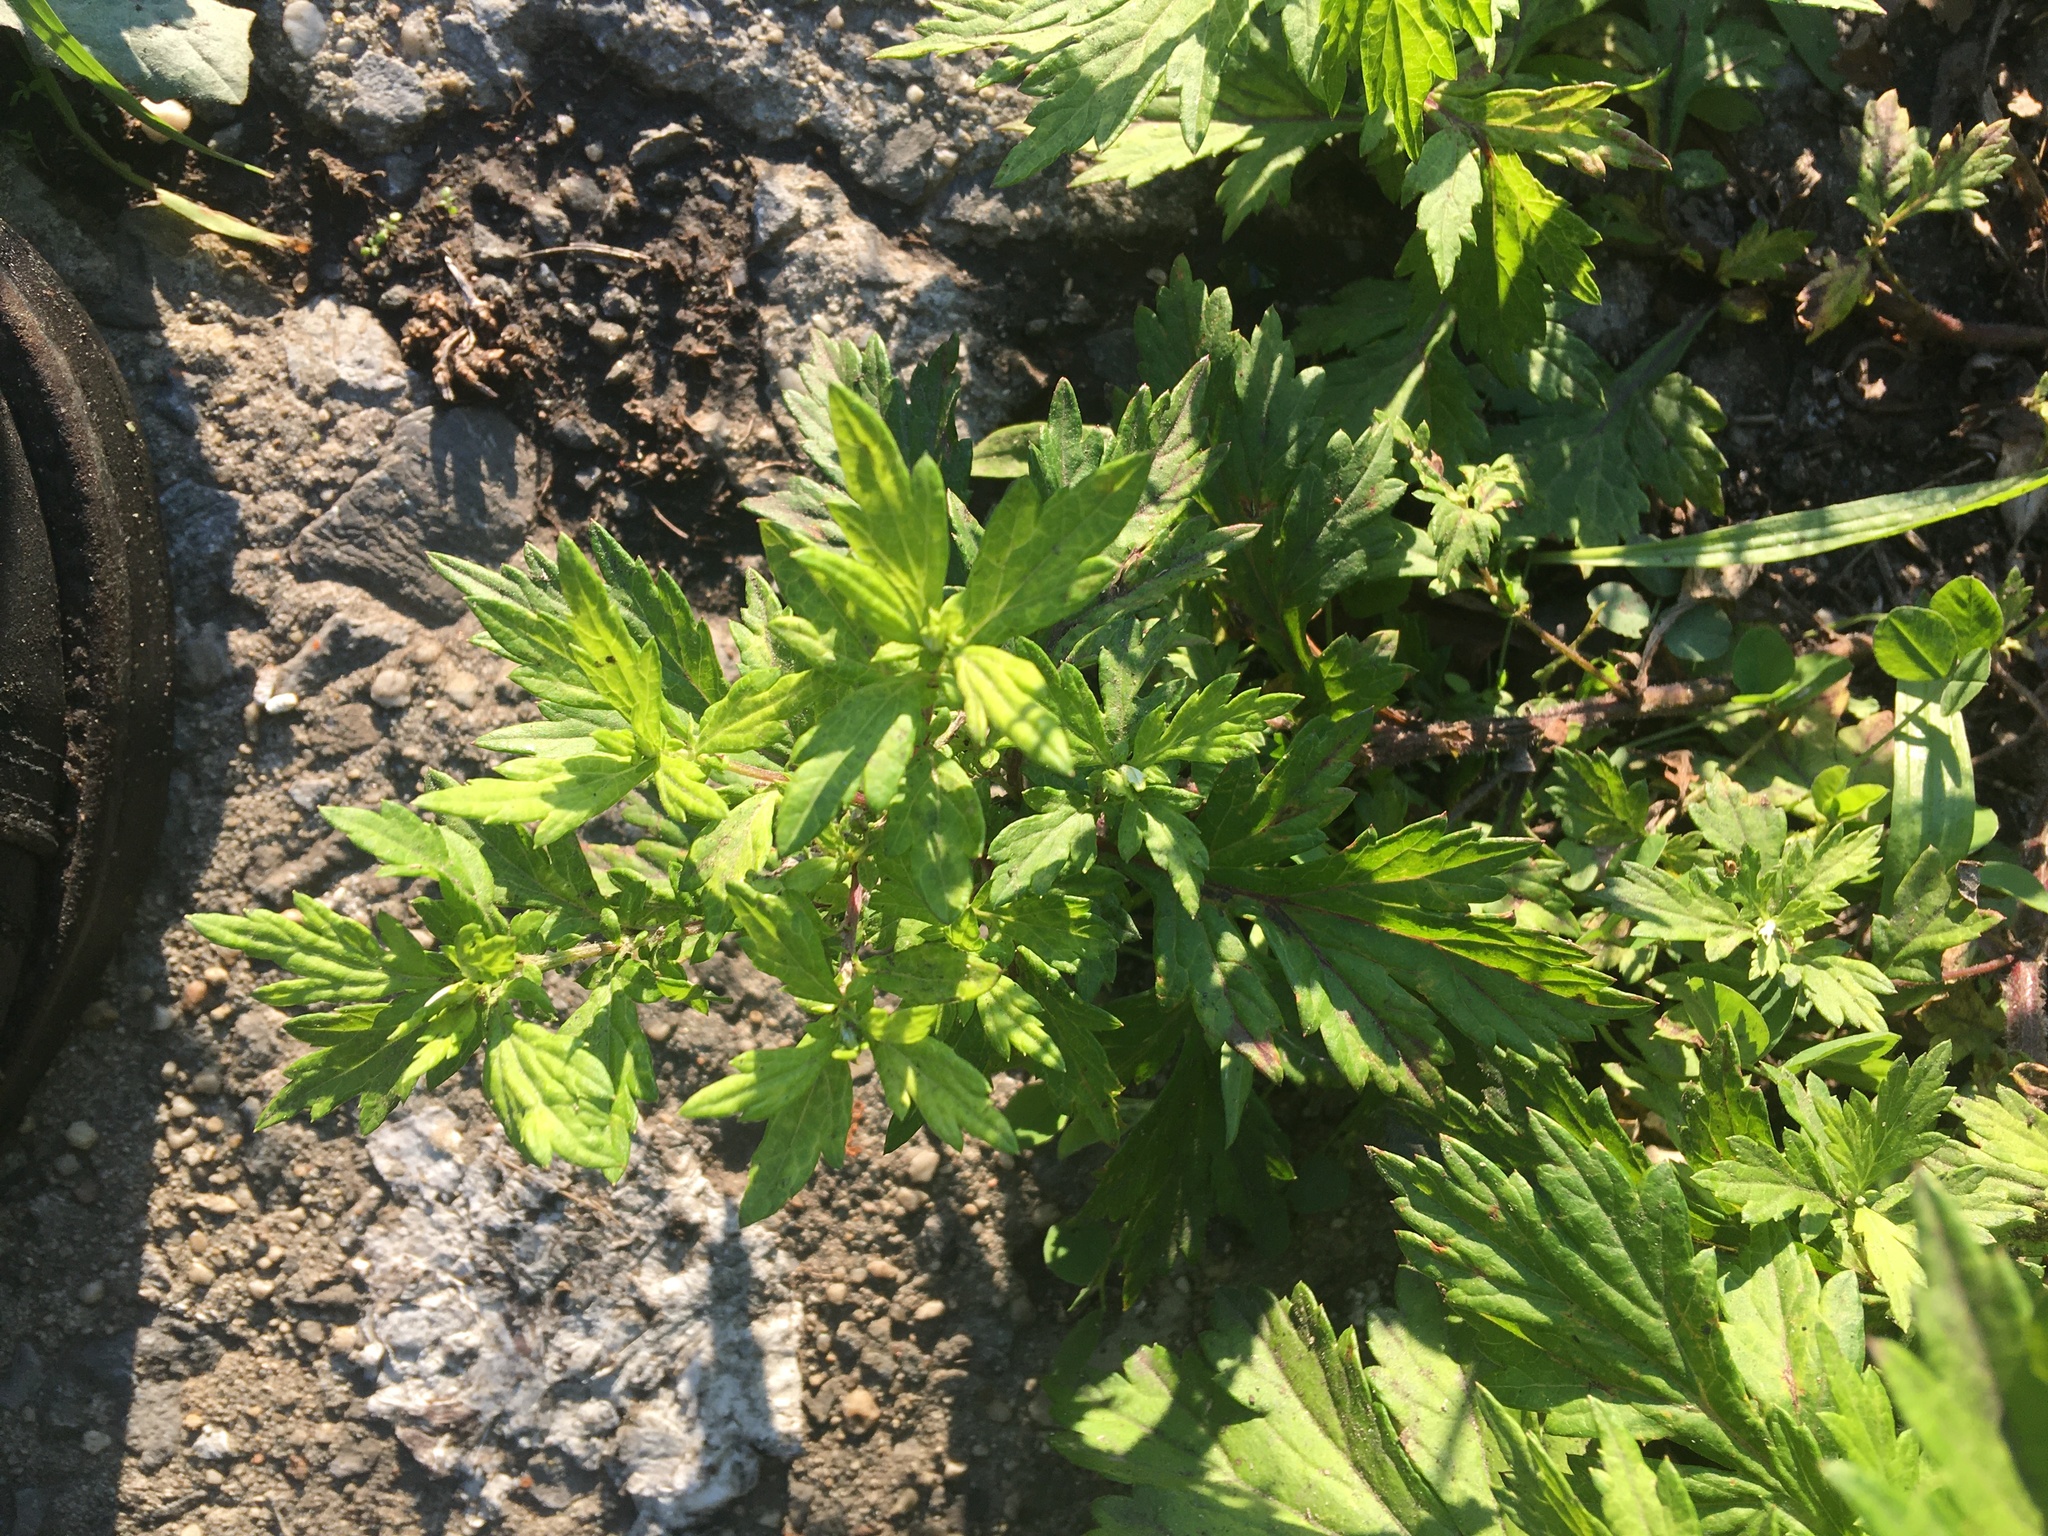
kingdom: Plantae
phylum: Tracheophyta
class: Magnoliopsida
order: Asterales
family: Asteraceae
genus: Artemisia
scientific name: Artemisia vulgaris
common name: Mugwort
